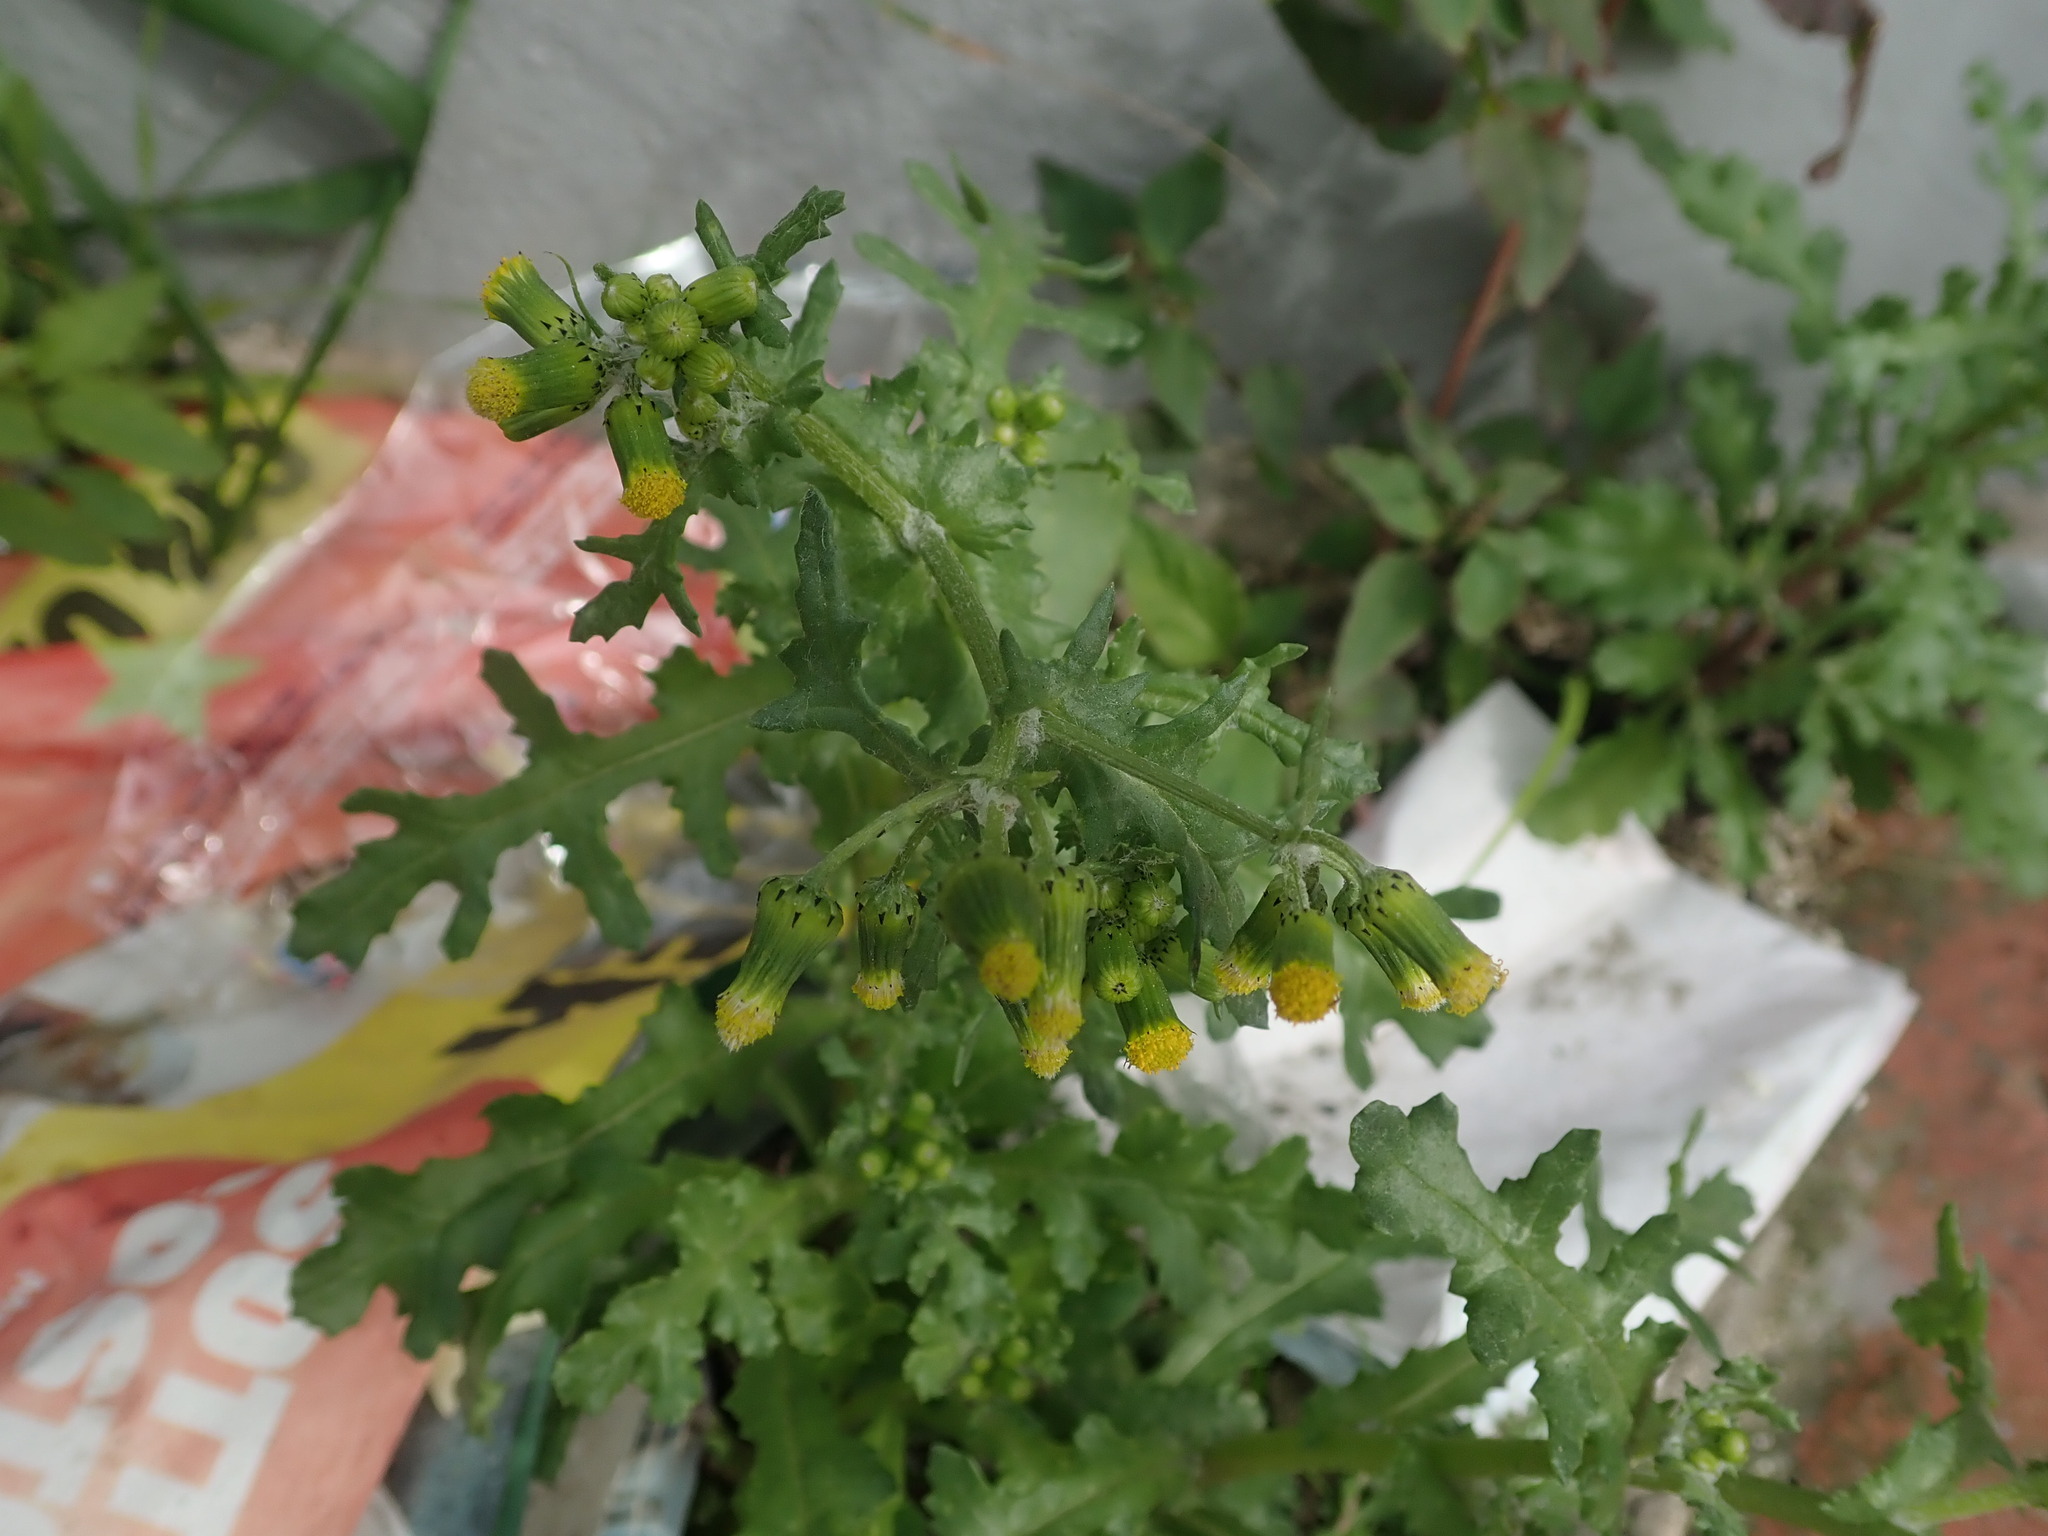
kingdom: Plantae
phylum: Tracheophyta
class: Magnoliopsida
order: Asterales
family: Asteraceae
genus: Senecio
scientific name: Senecio vulgaris
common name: Old-man-in-the-spring
